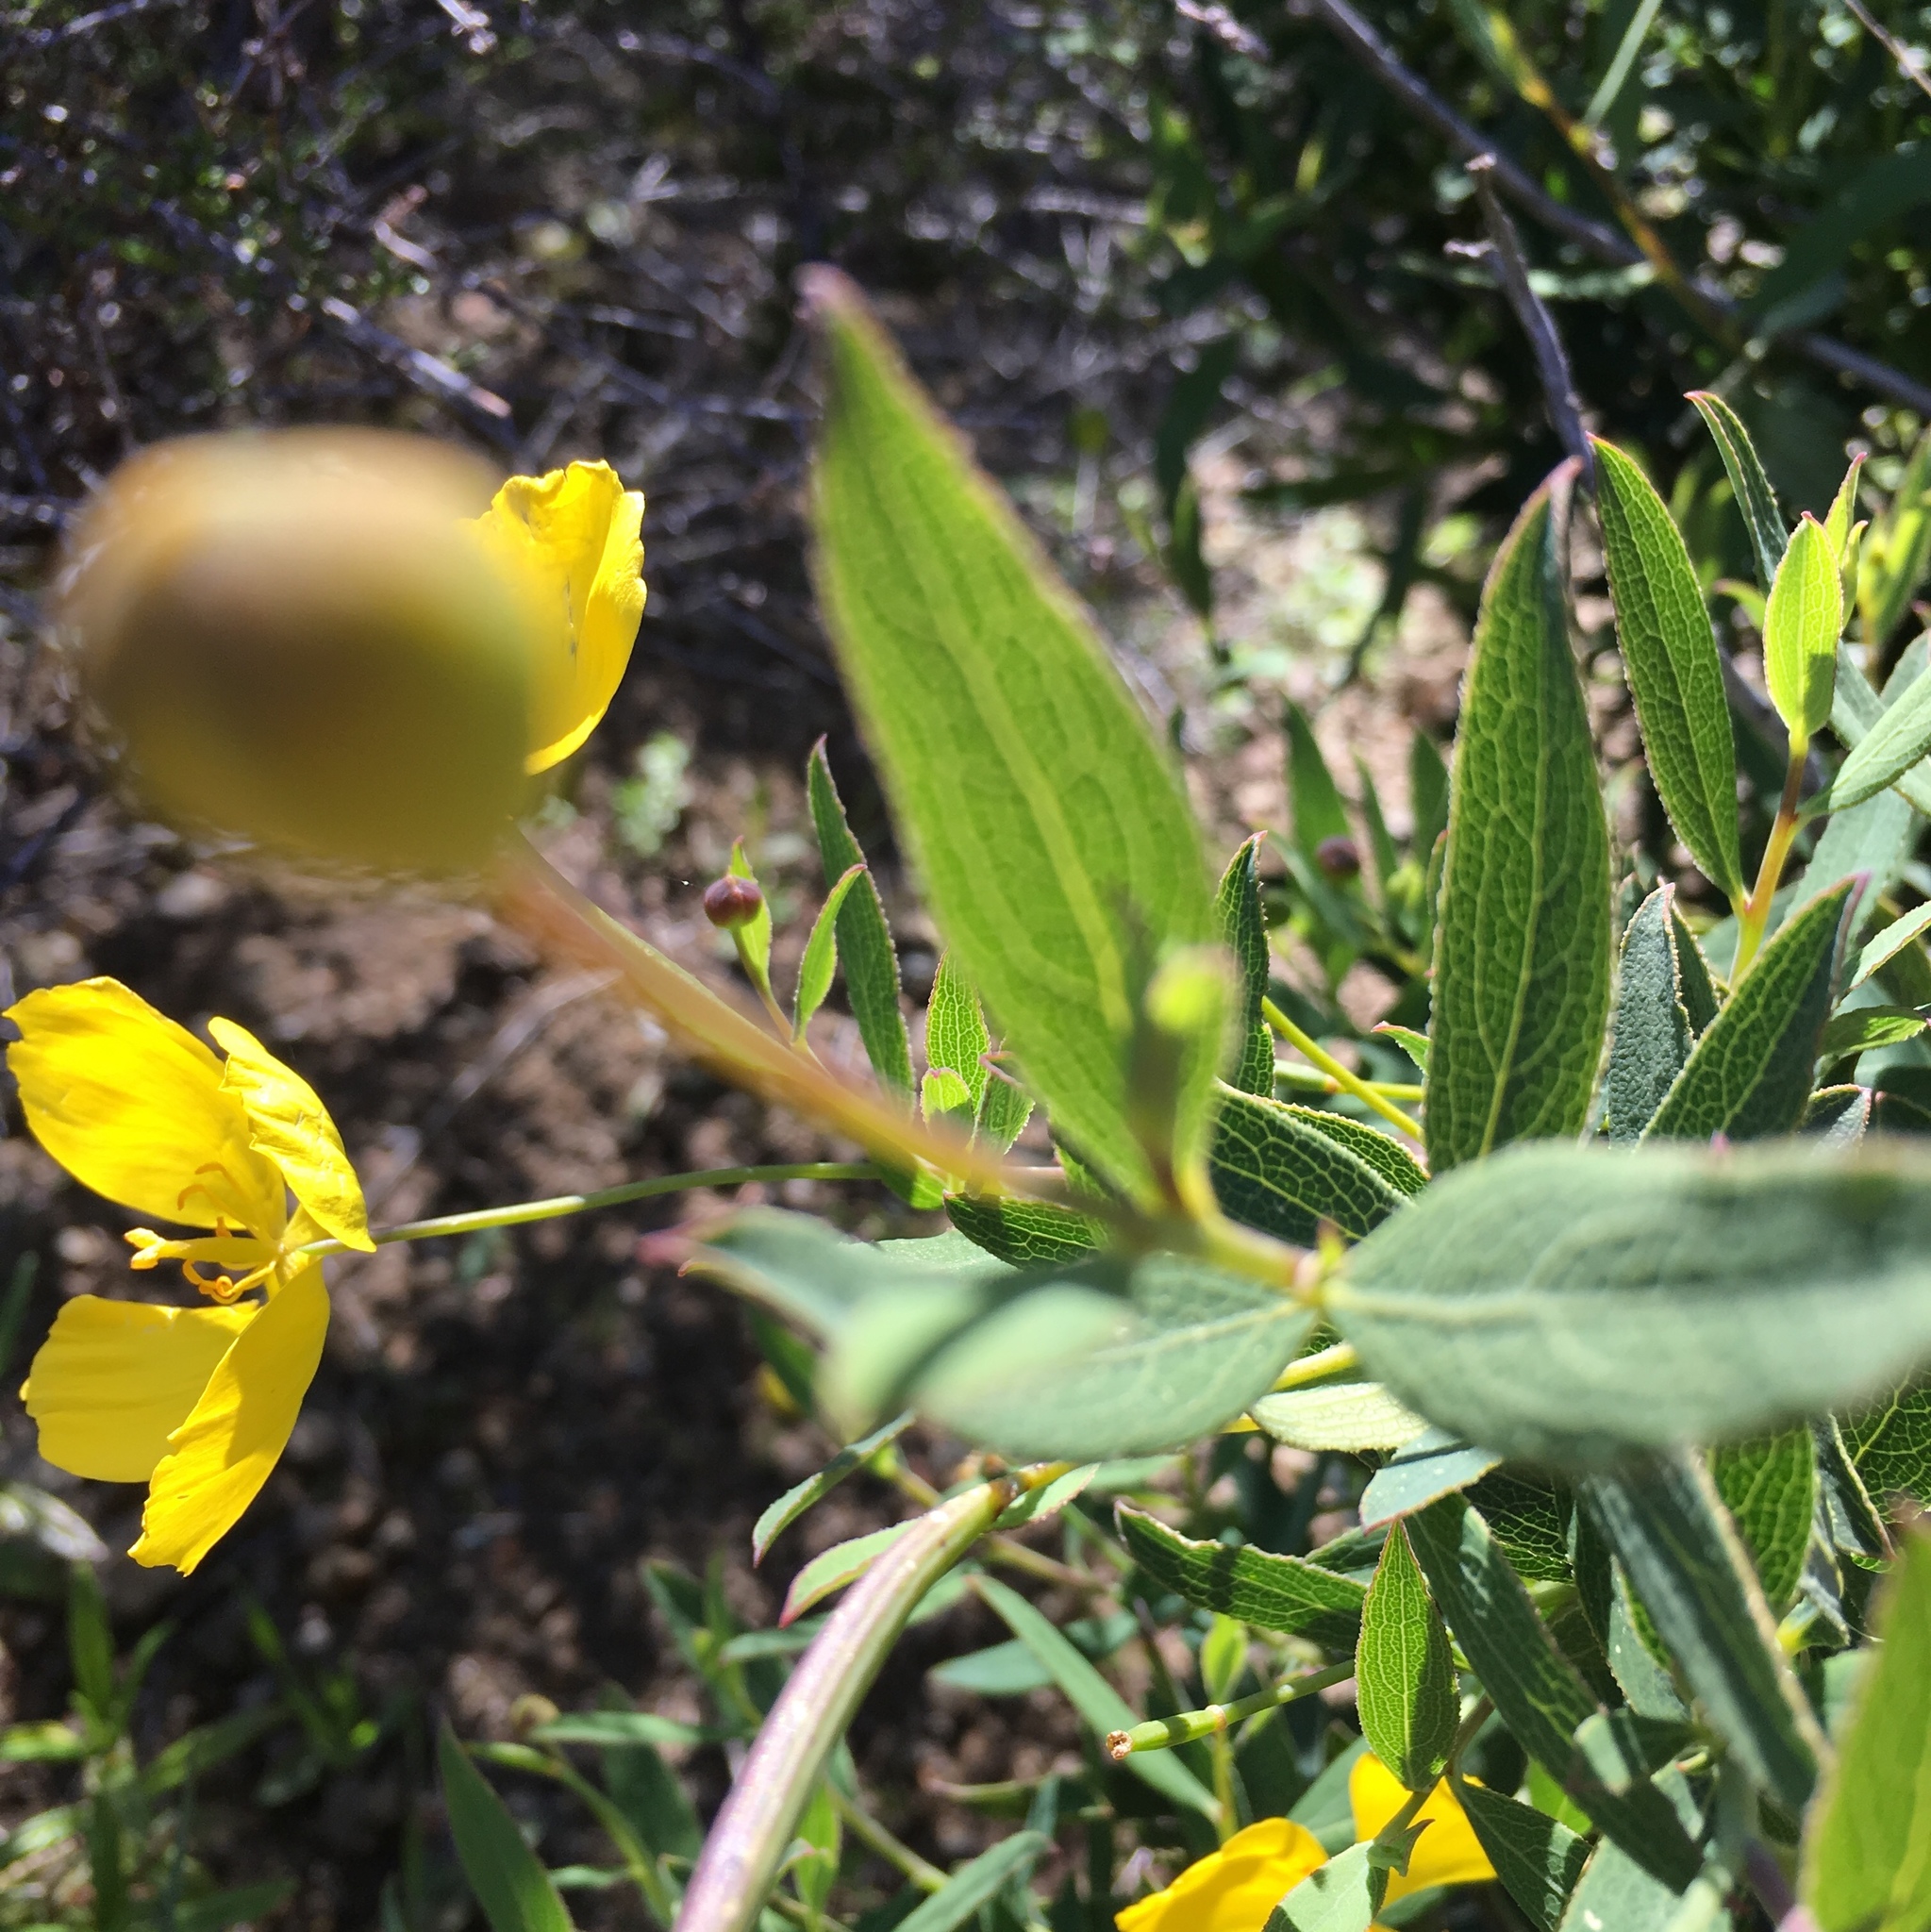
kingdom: Plantae
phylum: Tracheophyta
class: Magnoliopsida
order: Ranunculales
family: Papaveraceae
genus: Dendromecon
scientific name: Dendromecon rigida
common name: Tree poppy
